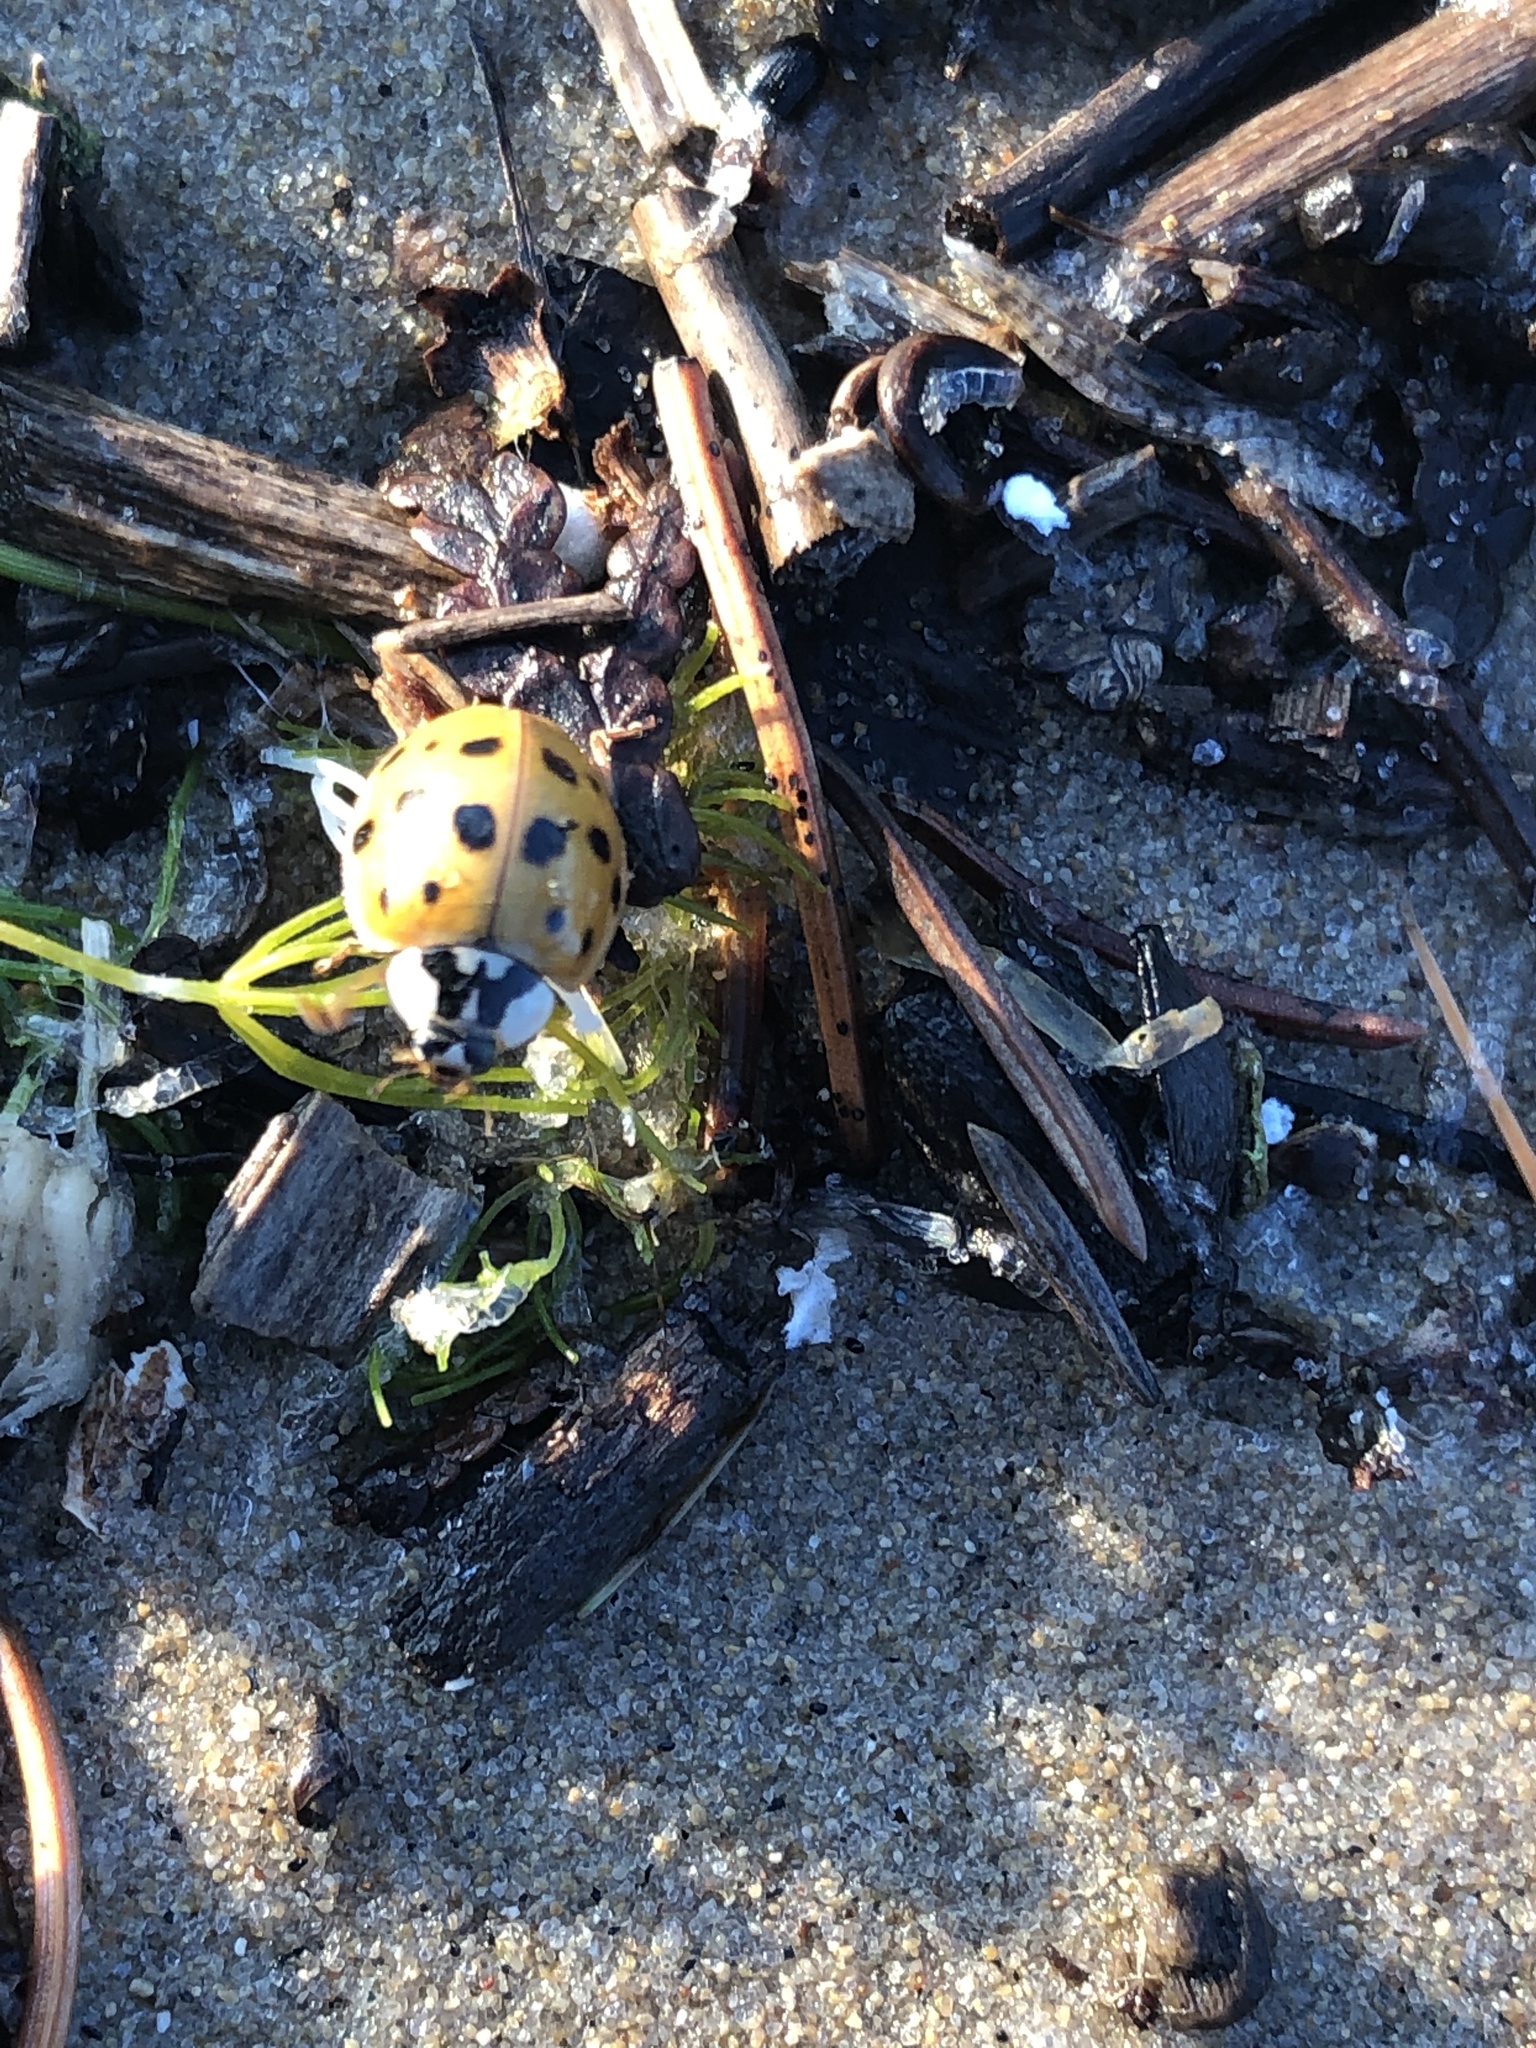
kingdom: Animalia
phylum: Arthropoda
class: Insecta
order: Coleoptera
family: Coccinellidae
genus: Harmonia
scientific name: Harmonia axyridis
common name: Harlequin ladybird
